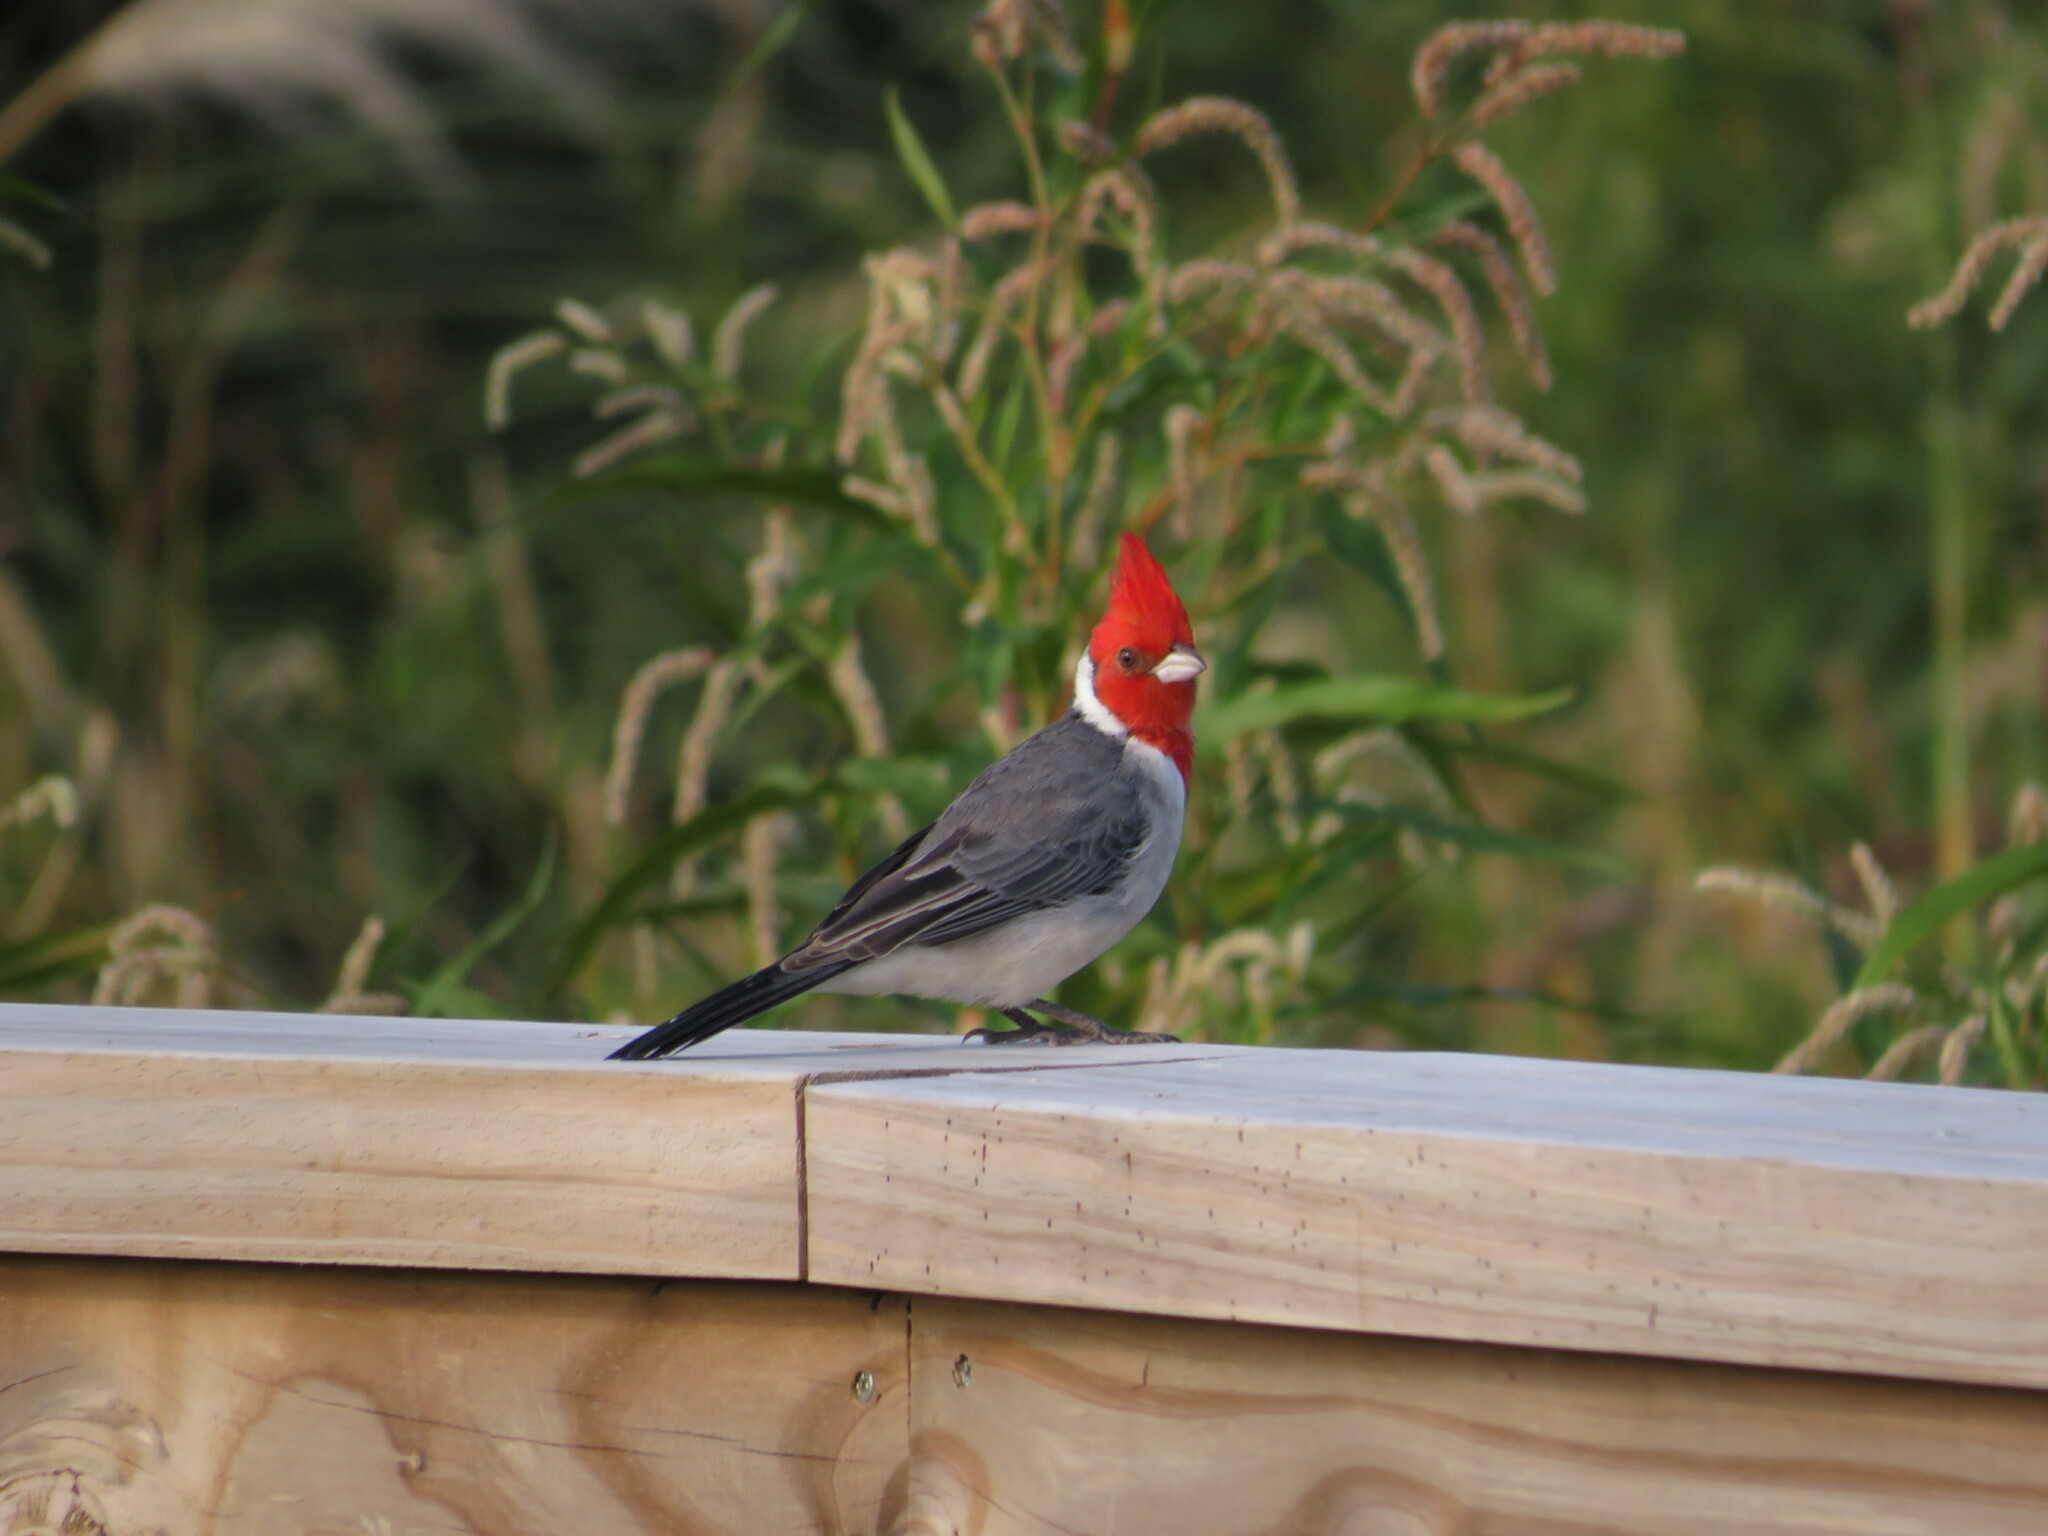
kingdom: Animalia
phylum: Chordata
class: Aves
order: Passeriformes
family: Thraupidae
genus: Paroaria
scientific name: Paroaria coronata
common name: Red-crested cardinal
